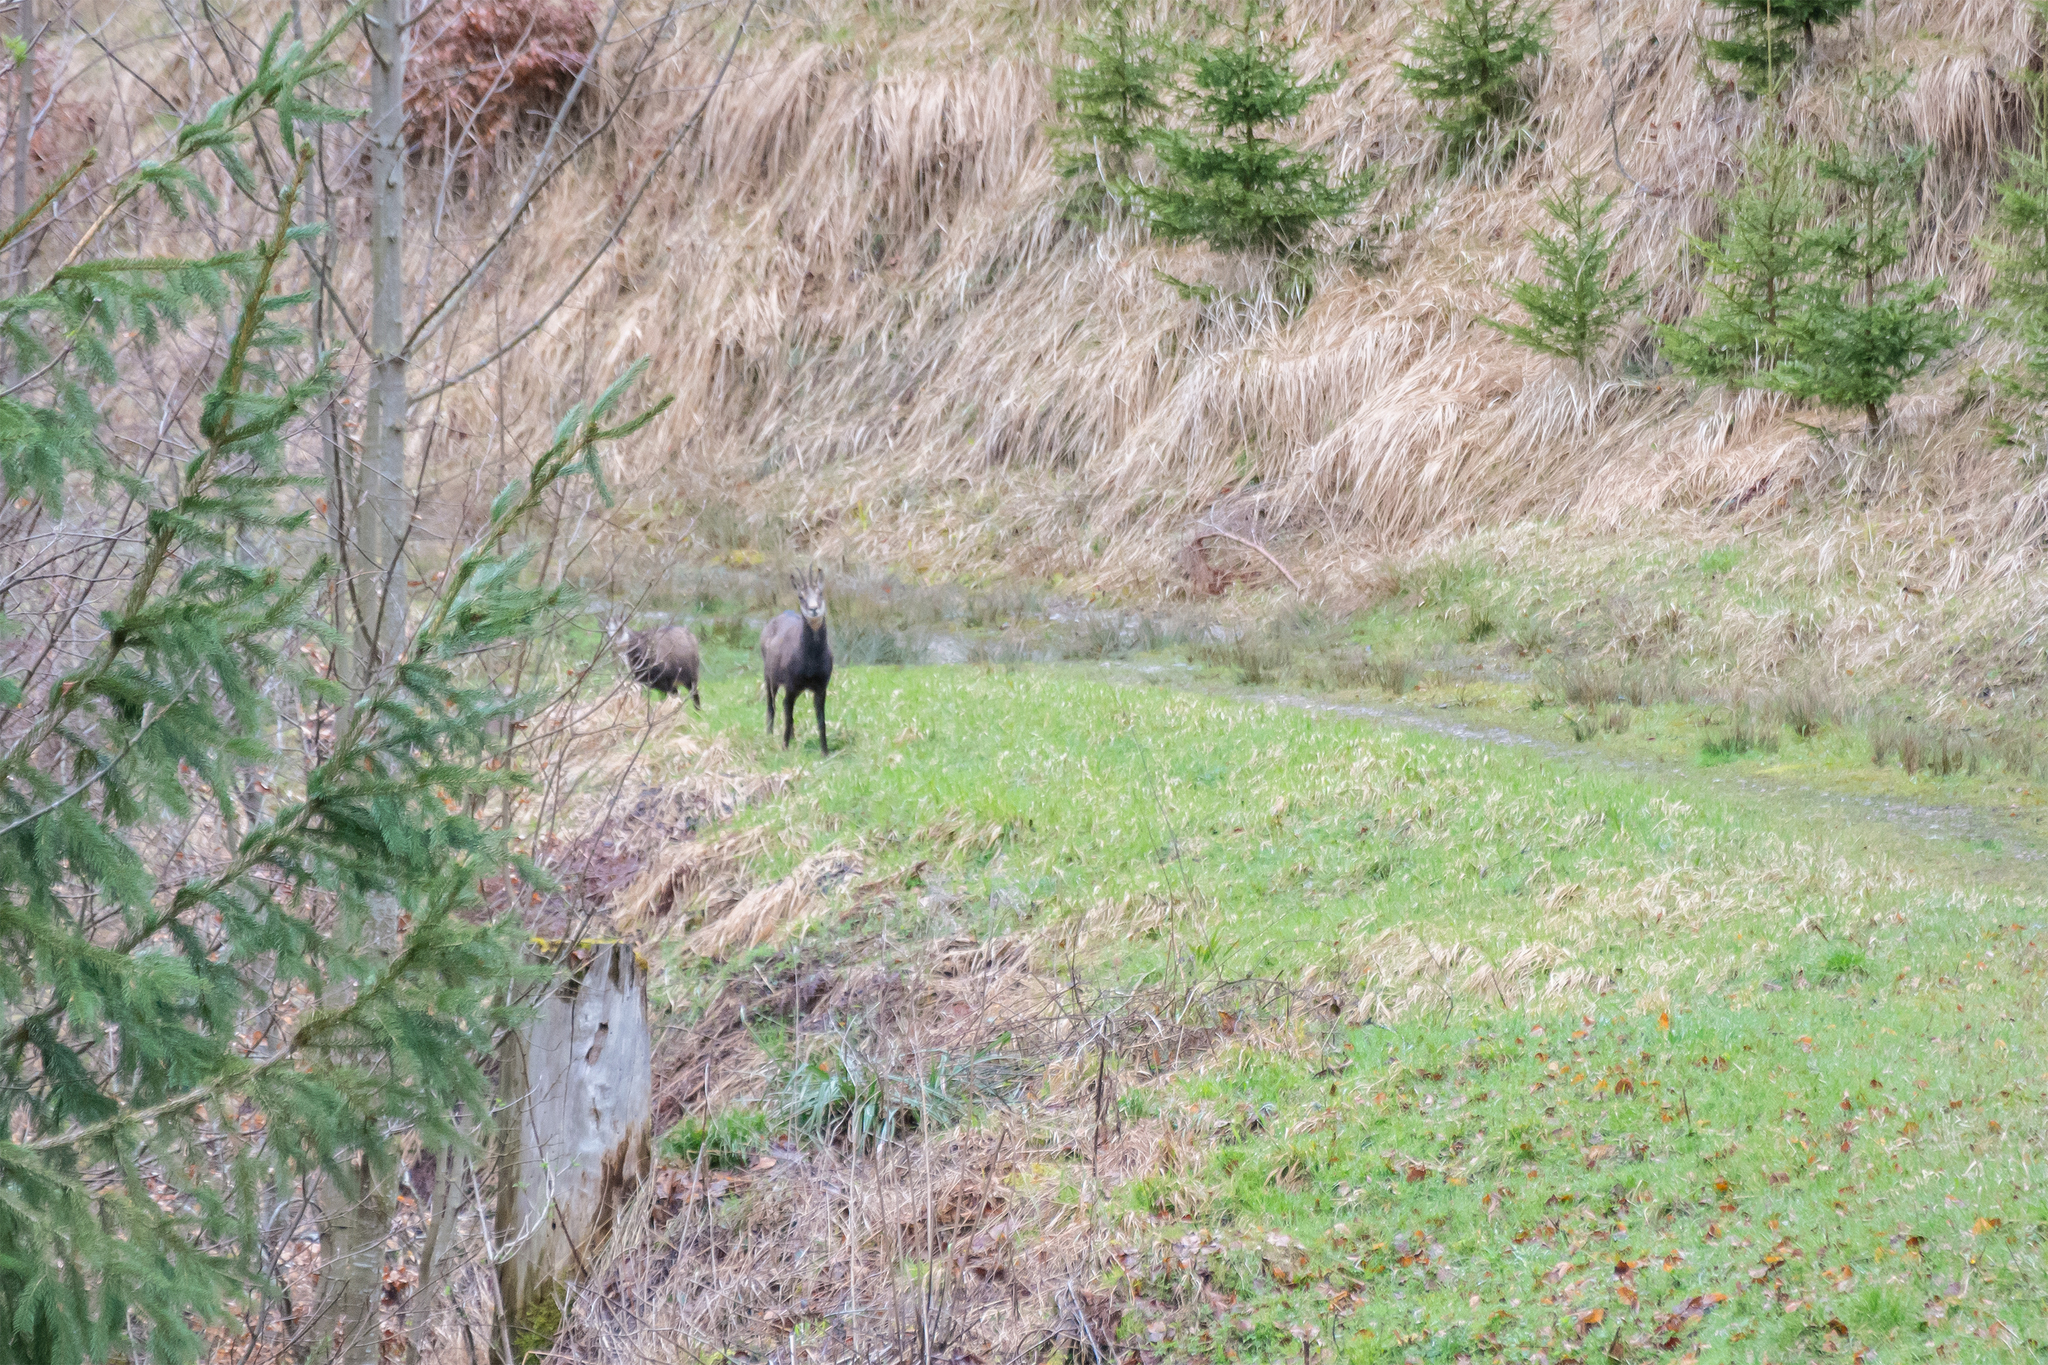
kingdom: Animalia
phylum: Chordata
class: Mammalia
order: Artiodactyla
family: Bovidae
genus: Rupicapra
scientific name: Rupicapra rupicapra
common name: Chamois
